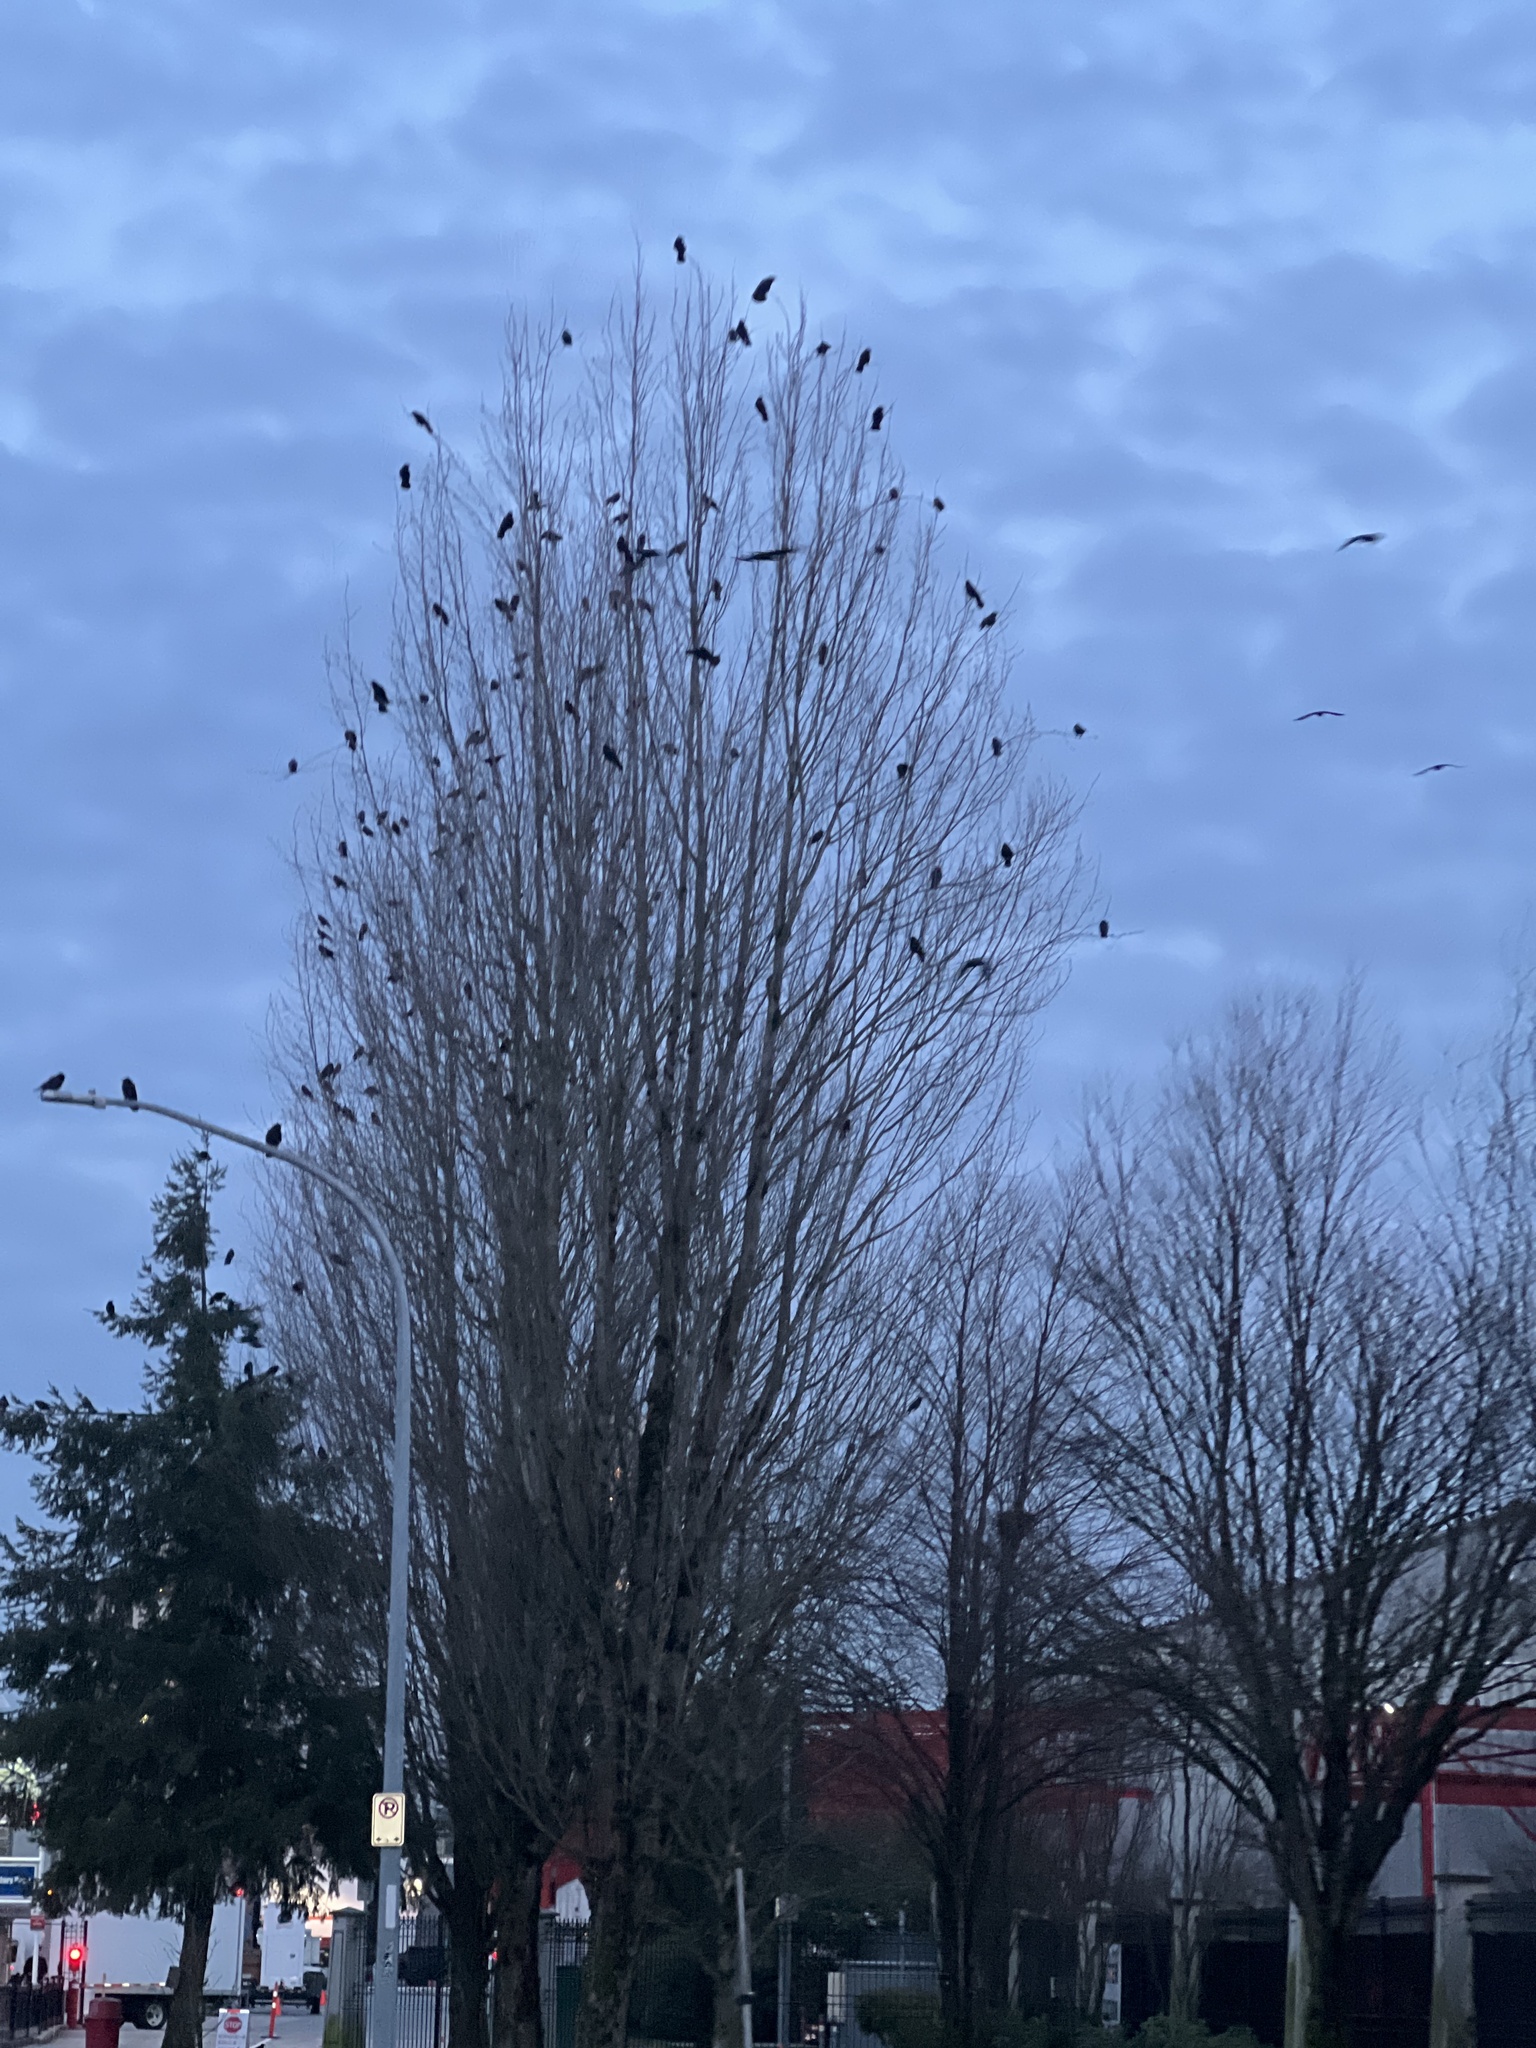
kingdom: Animalia
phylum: Chordata
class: Aves
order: Passeriformes
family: Corvidae
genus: Corvus
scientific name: Corvus brachyrhynchos
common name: American crow
